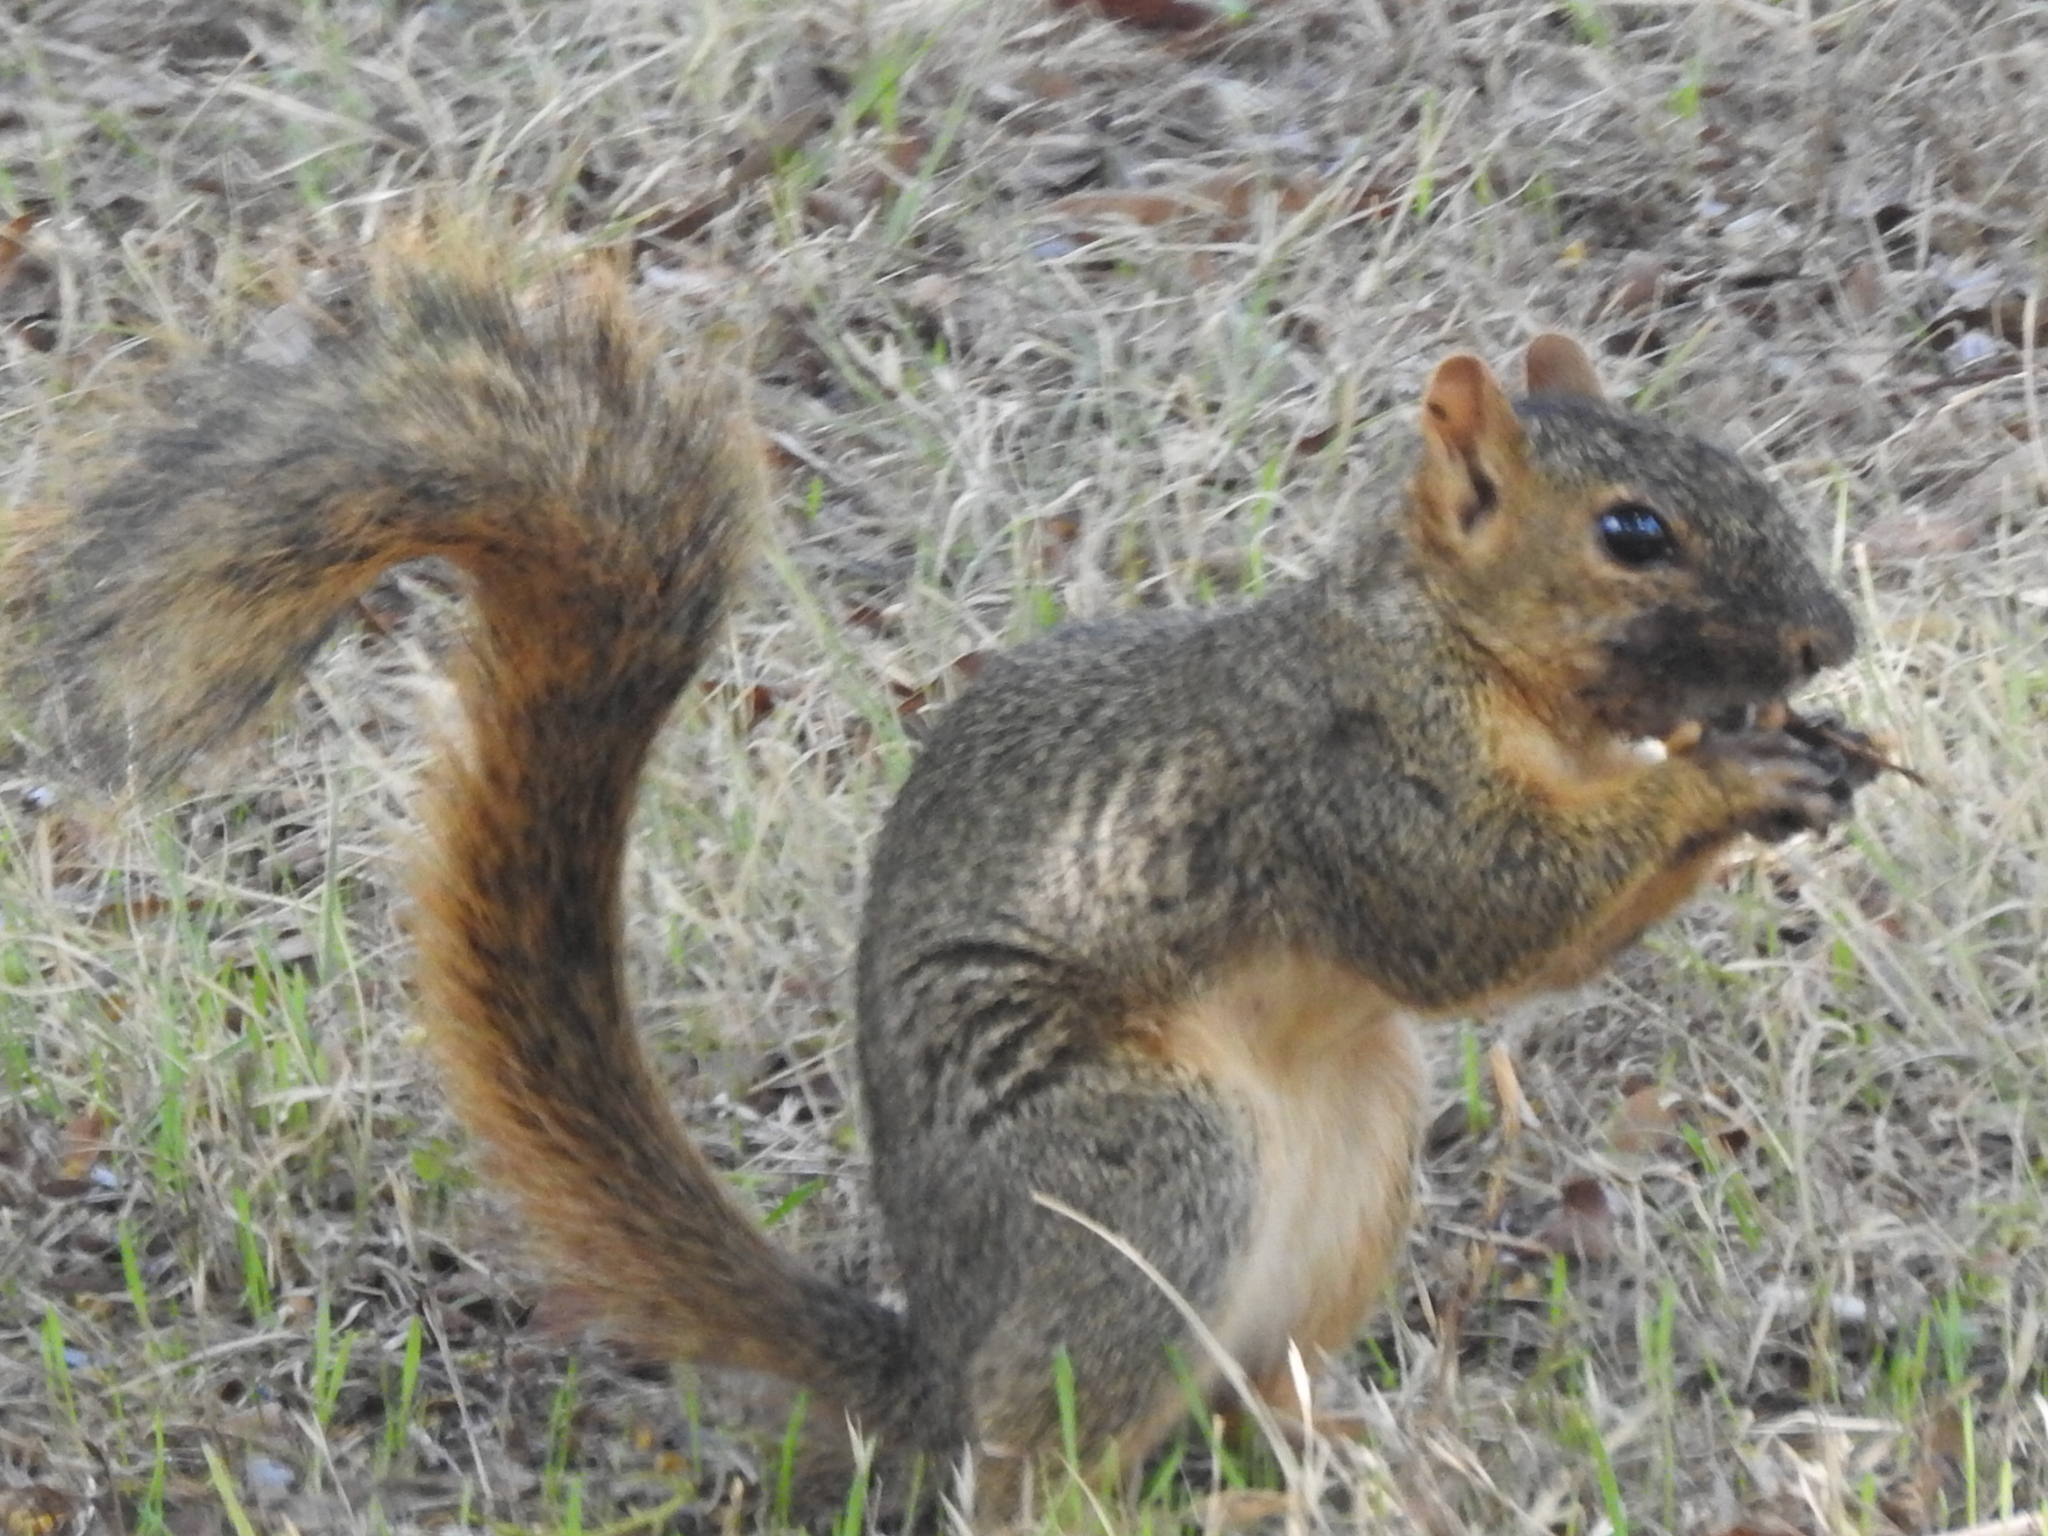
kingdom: Animalia
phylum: Chordata
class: Mammalia
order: Rodentia
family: Sciuridae
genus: Sciurus
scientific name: Sciurus niger
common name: Fox squirrel
